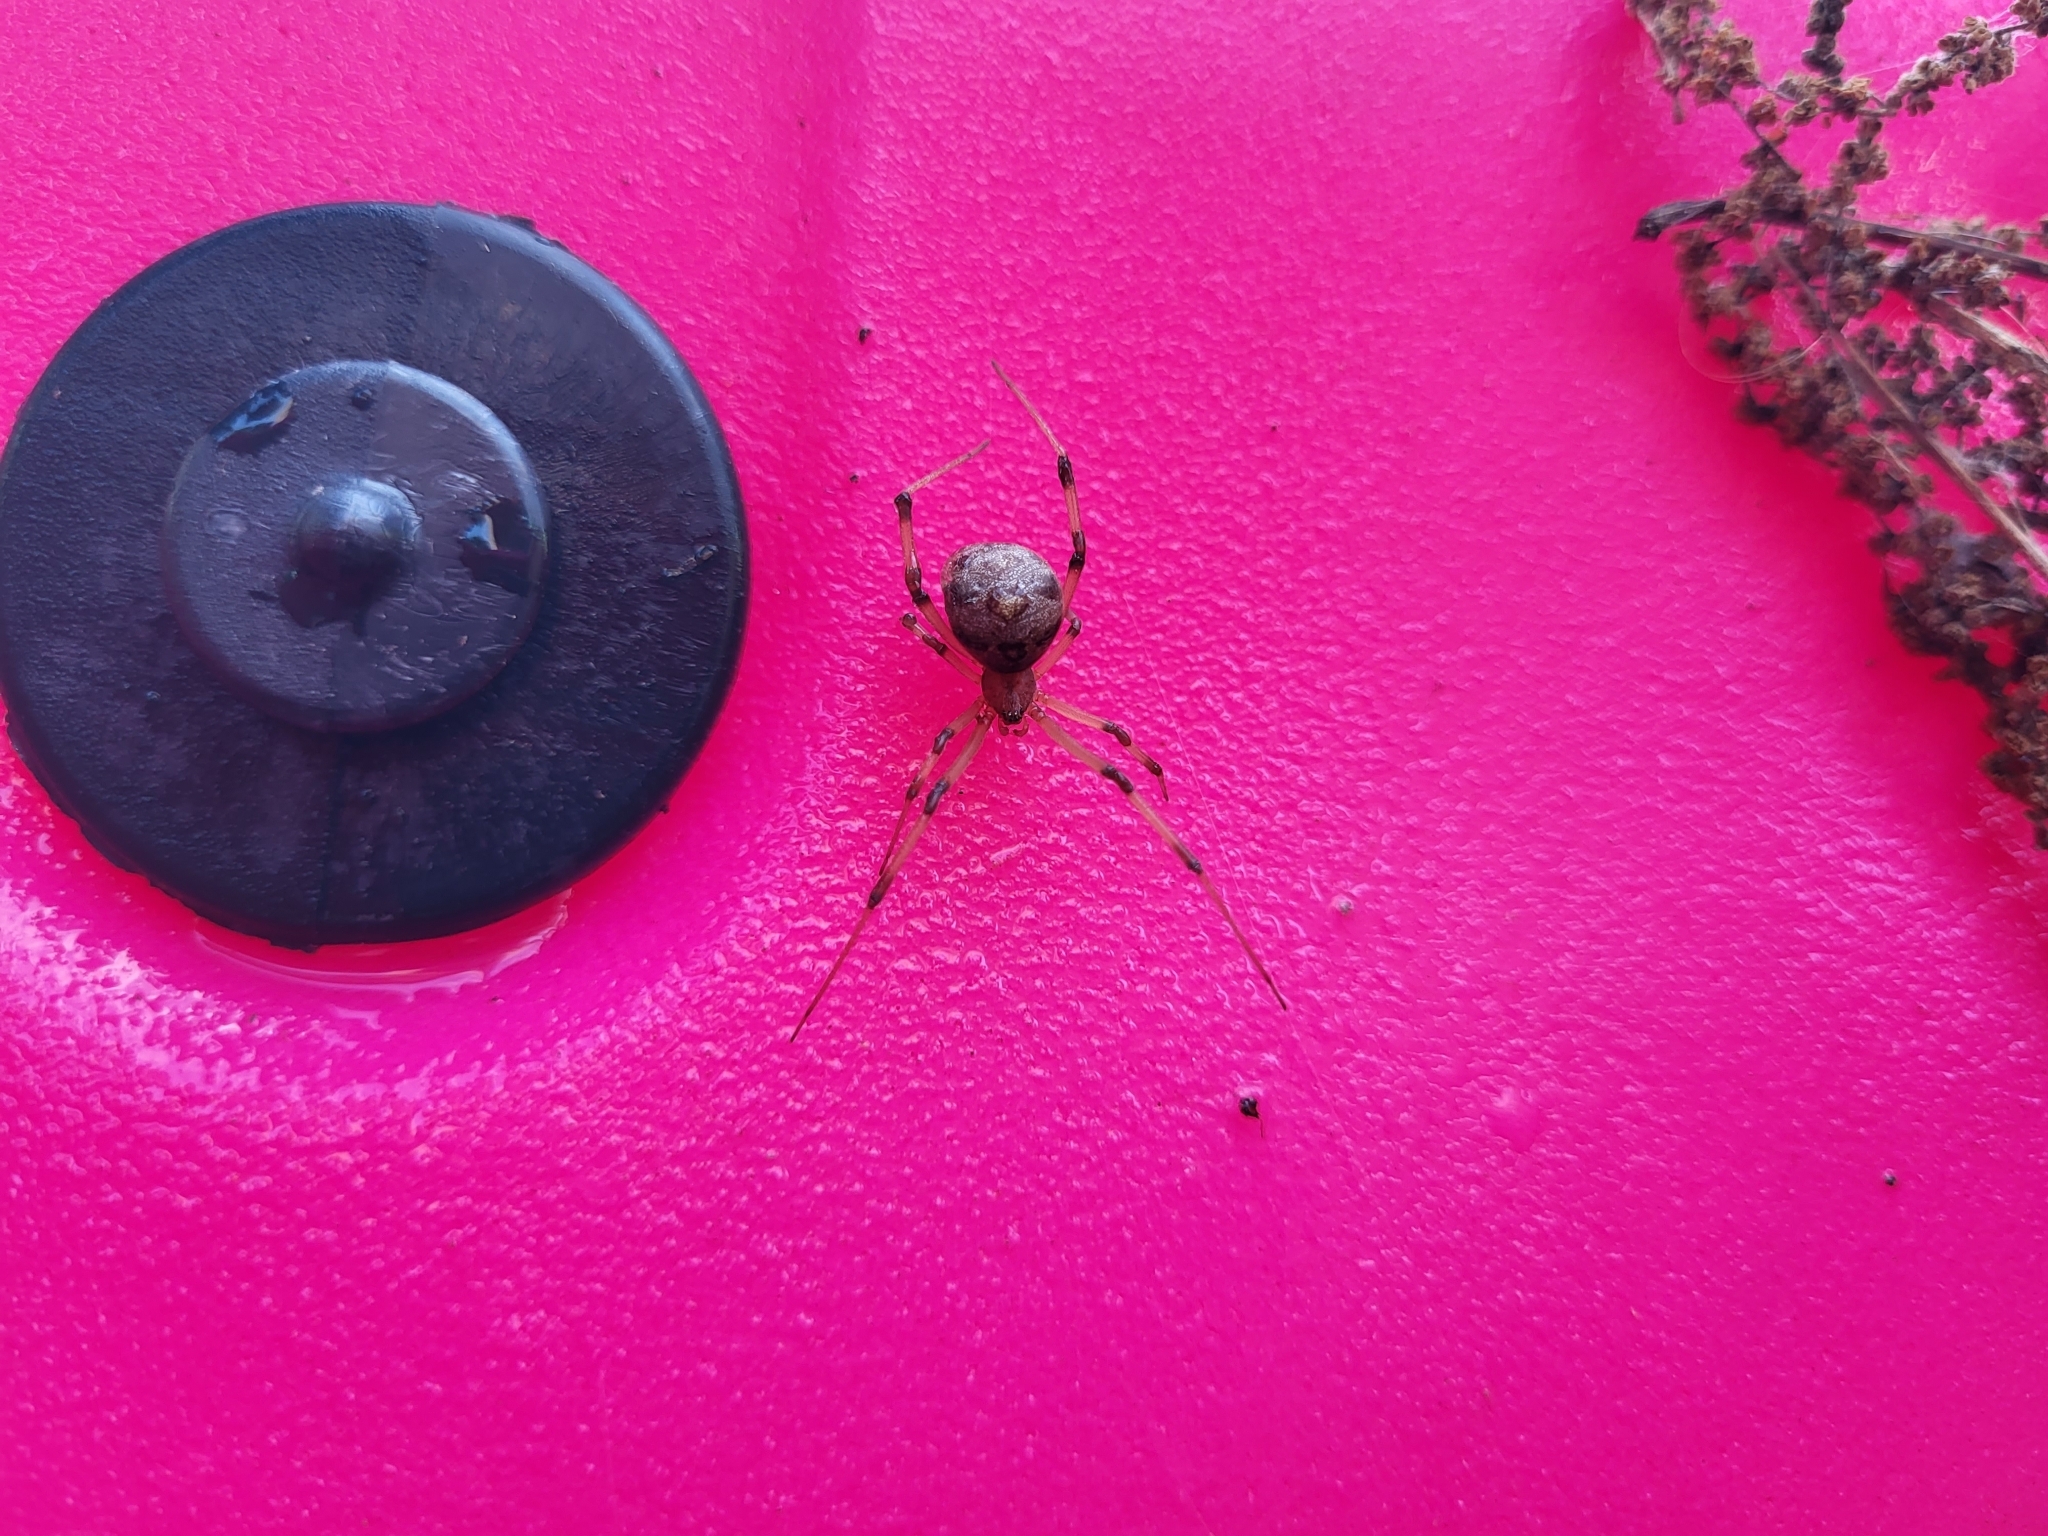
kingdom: Animalia
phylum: Arthropoda
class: Arachnida
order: Araneae
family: Theridiidae
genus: Latrodectus
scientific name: Latrodectus geometricus
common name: Brown widow spider
